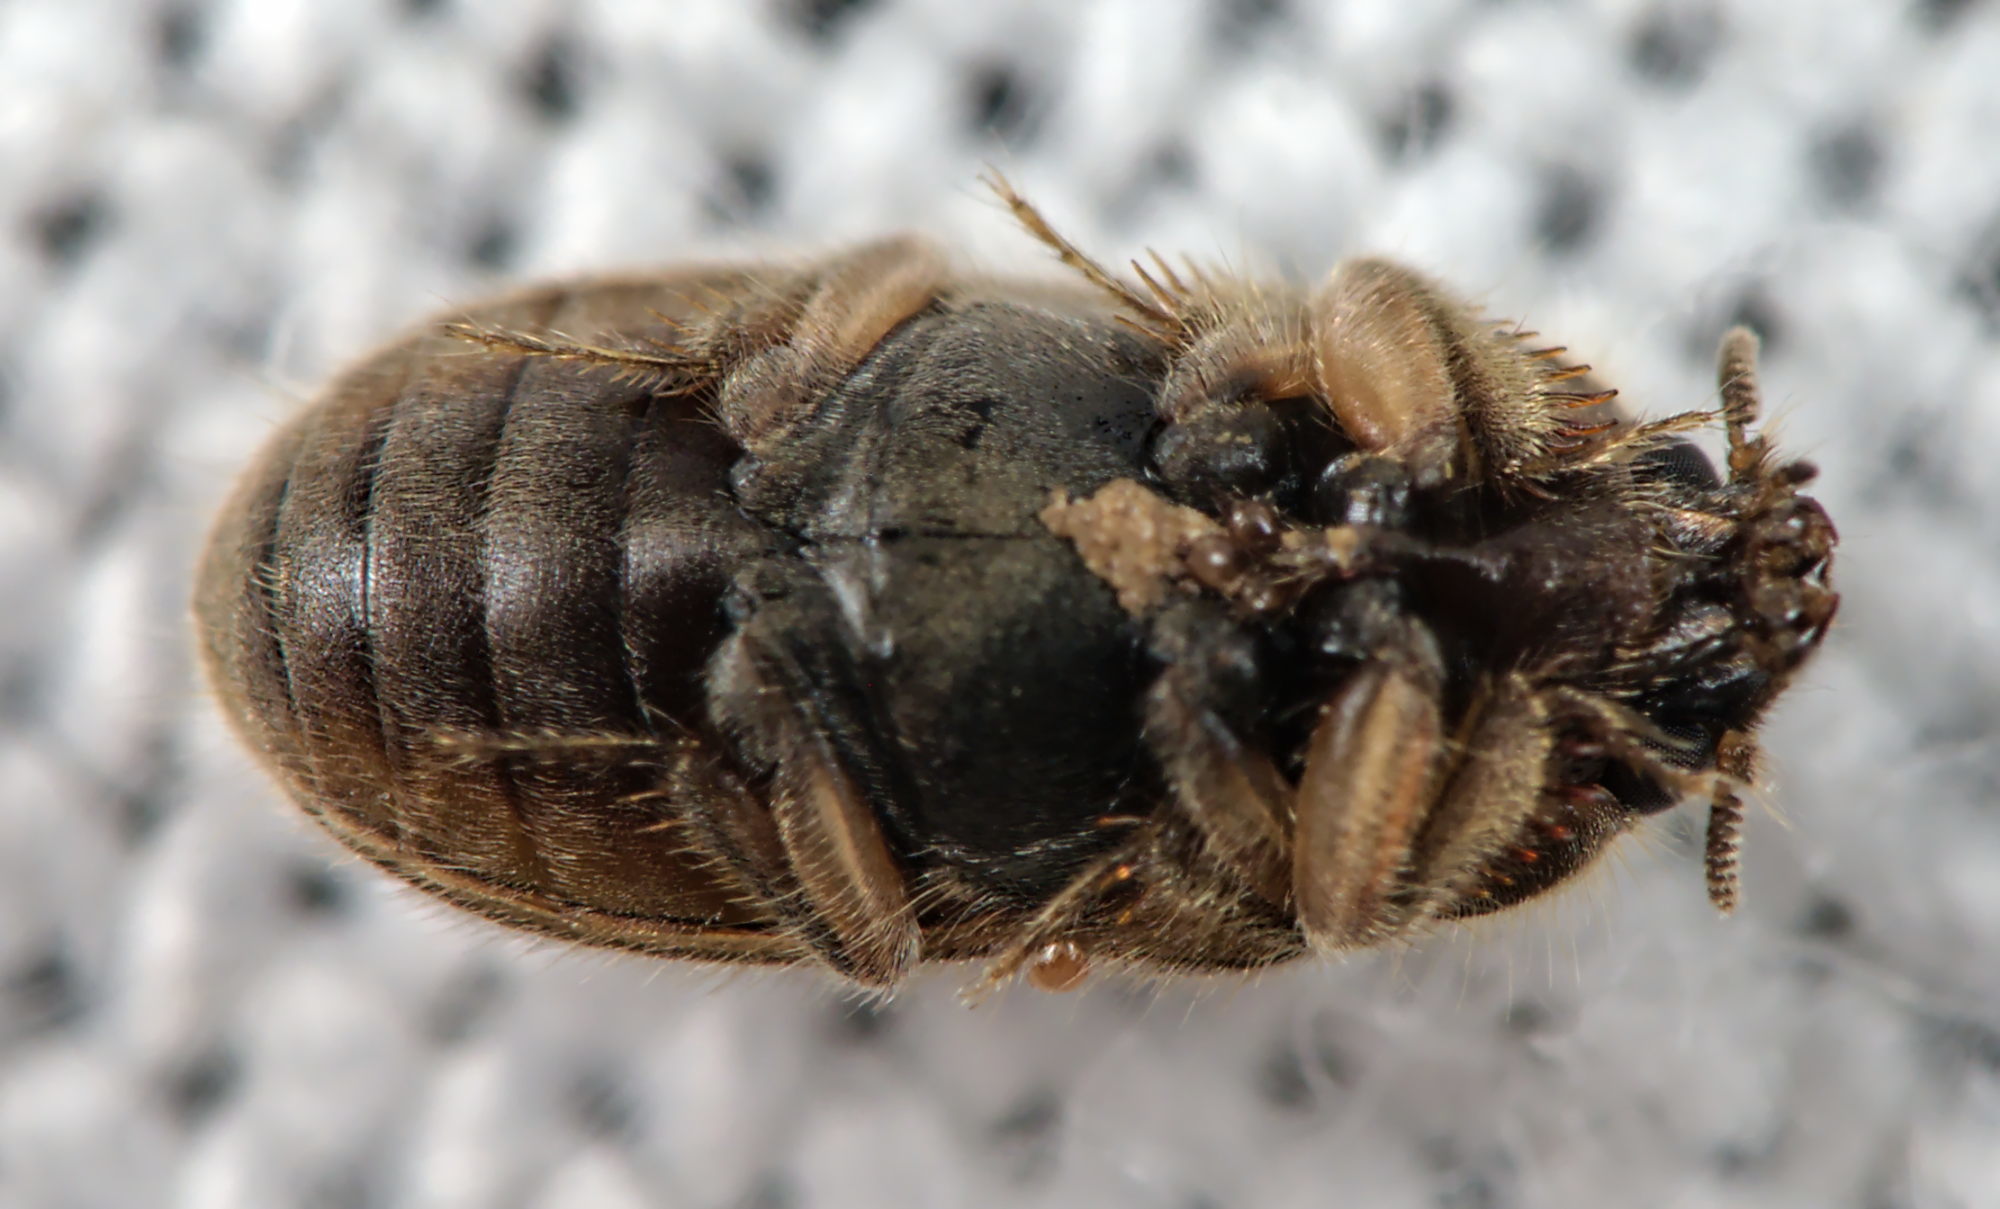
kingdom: Animalia
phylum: Arthropoda
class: Insecta
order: Coleoptera
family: Heteroceridae
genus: Heterocerus
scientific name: Heterocerus fenestratus
